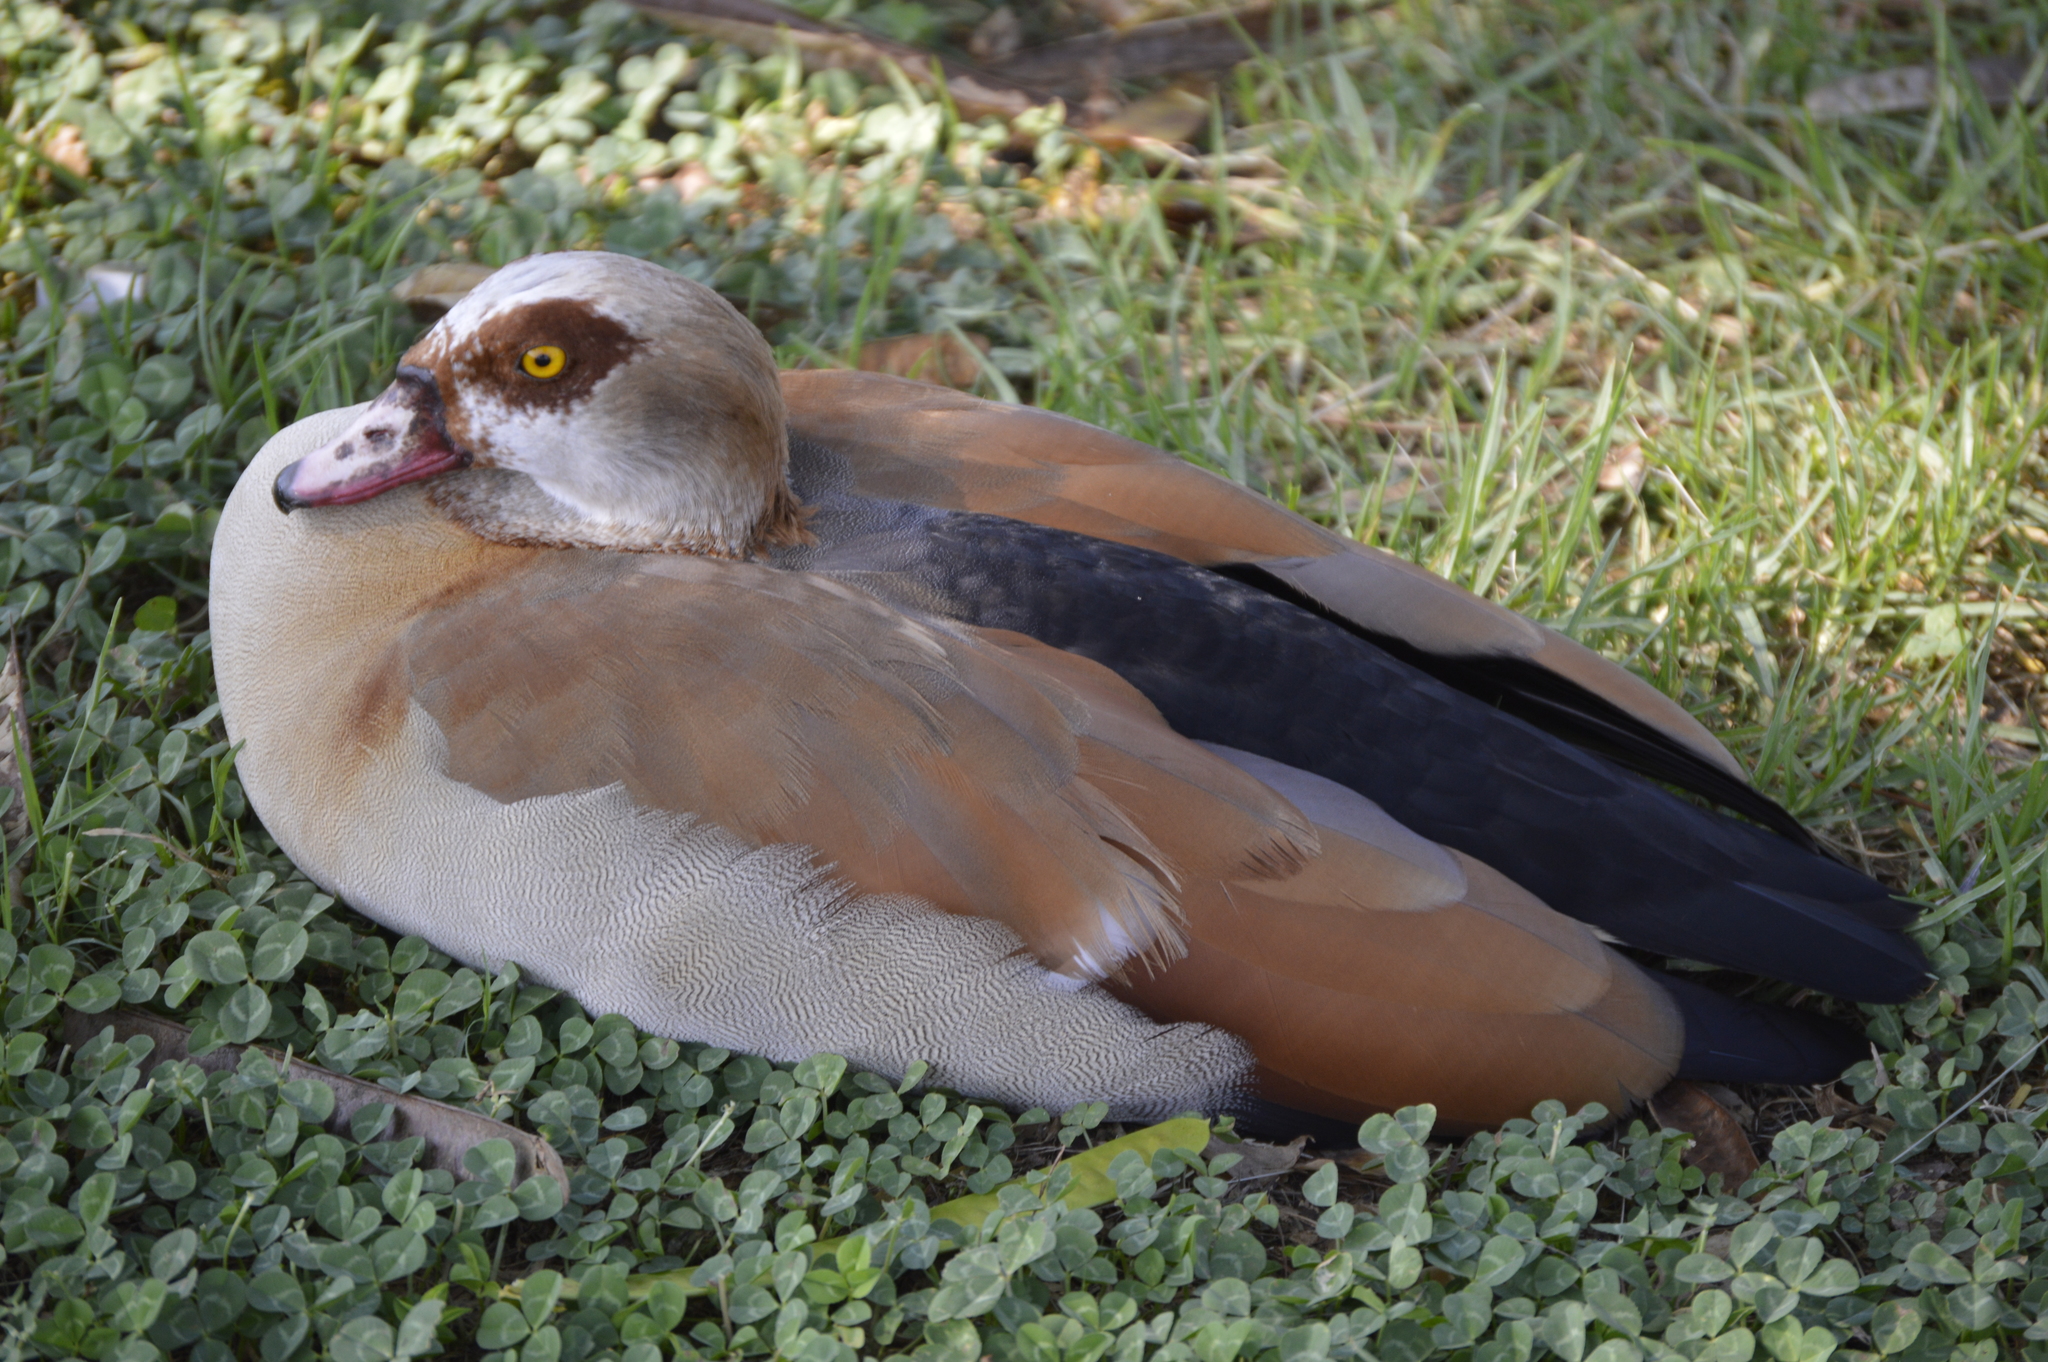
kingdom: Animalia
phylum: Chordata
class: Aves
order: Anseriformes
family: Anatidae
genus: Alopochen
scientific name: Alopochen aegyptiaca
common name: Egyptian goose
